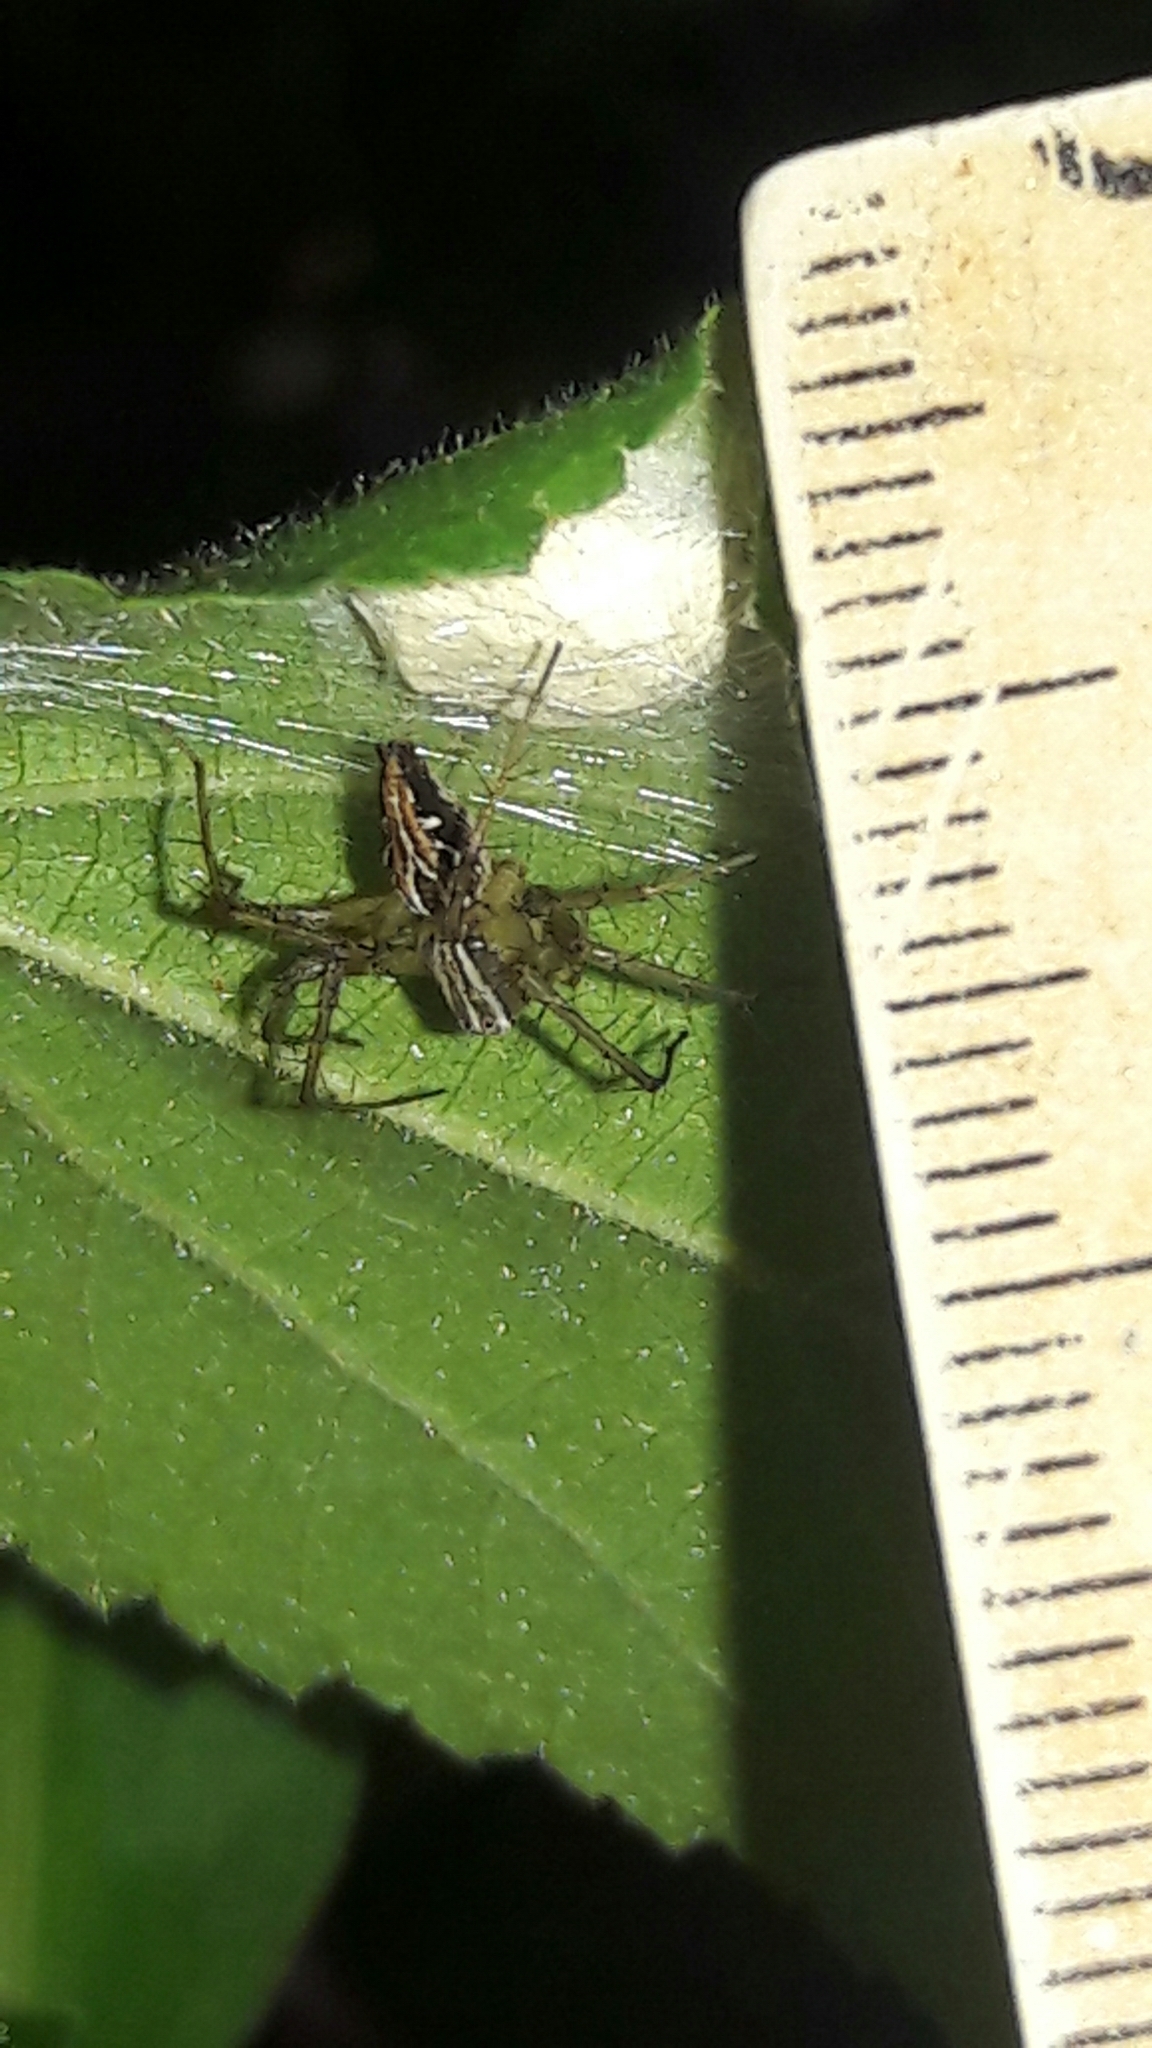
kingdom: Animalia
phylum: Arthropoda
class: Arachnida
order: Araneae
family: Oxyopidae
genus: Oxyopes
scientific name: Oxyopes salticus
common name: Lynx spiders
